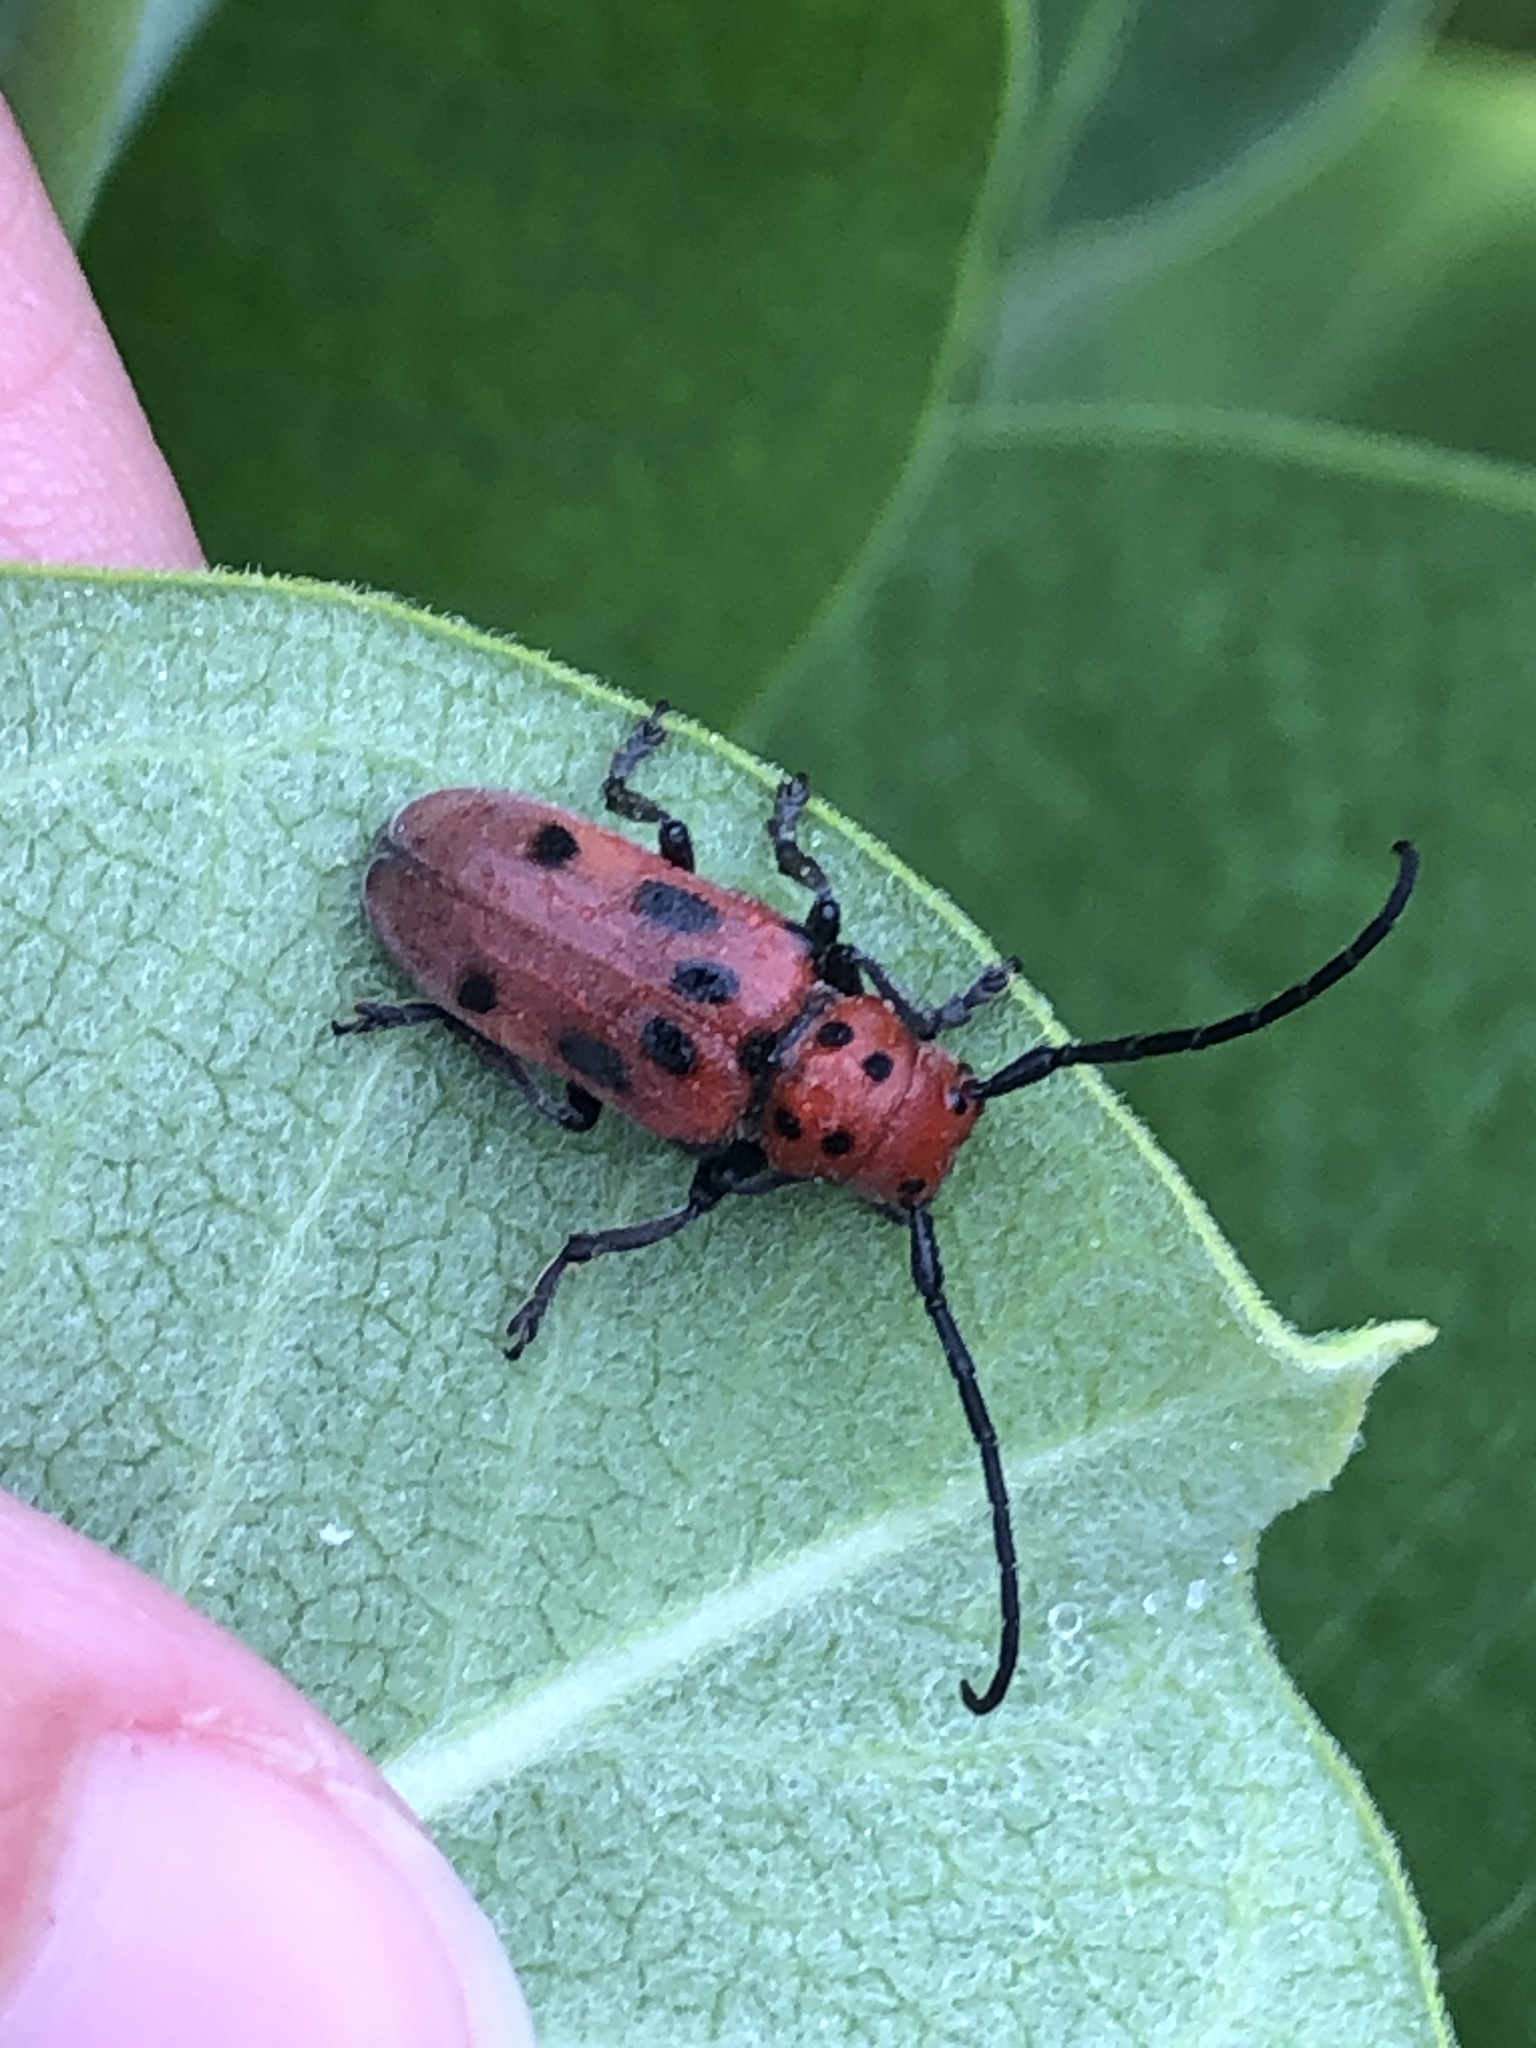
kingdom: Animalia
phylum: Arthropoda
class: Insecta
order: Coleoptera
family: Cerambycidae
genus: Tetraopes
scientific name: Tetraopes tetrophthalmus
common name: Red milkweed beetle
